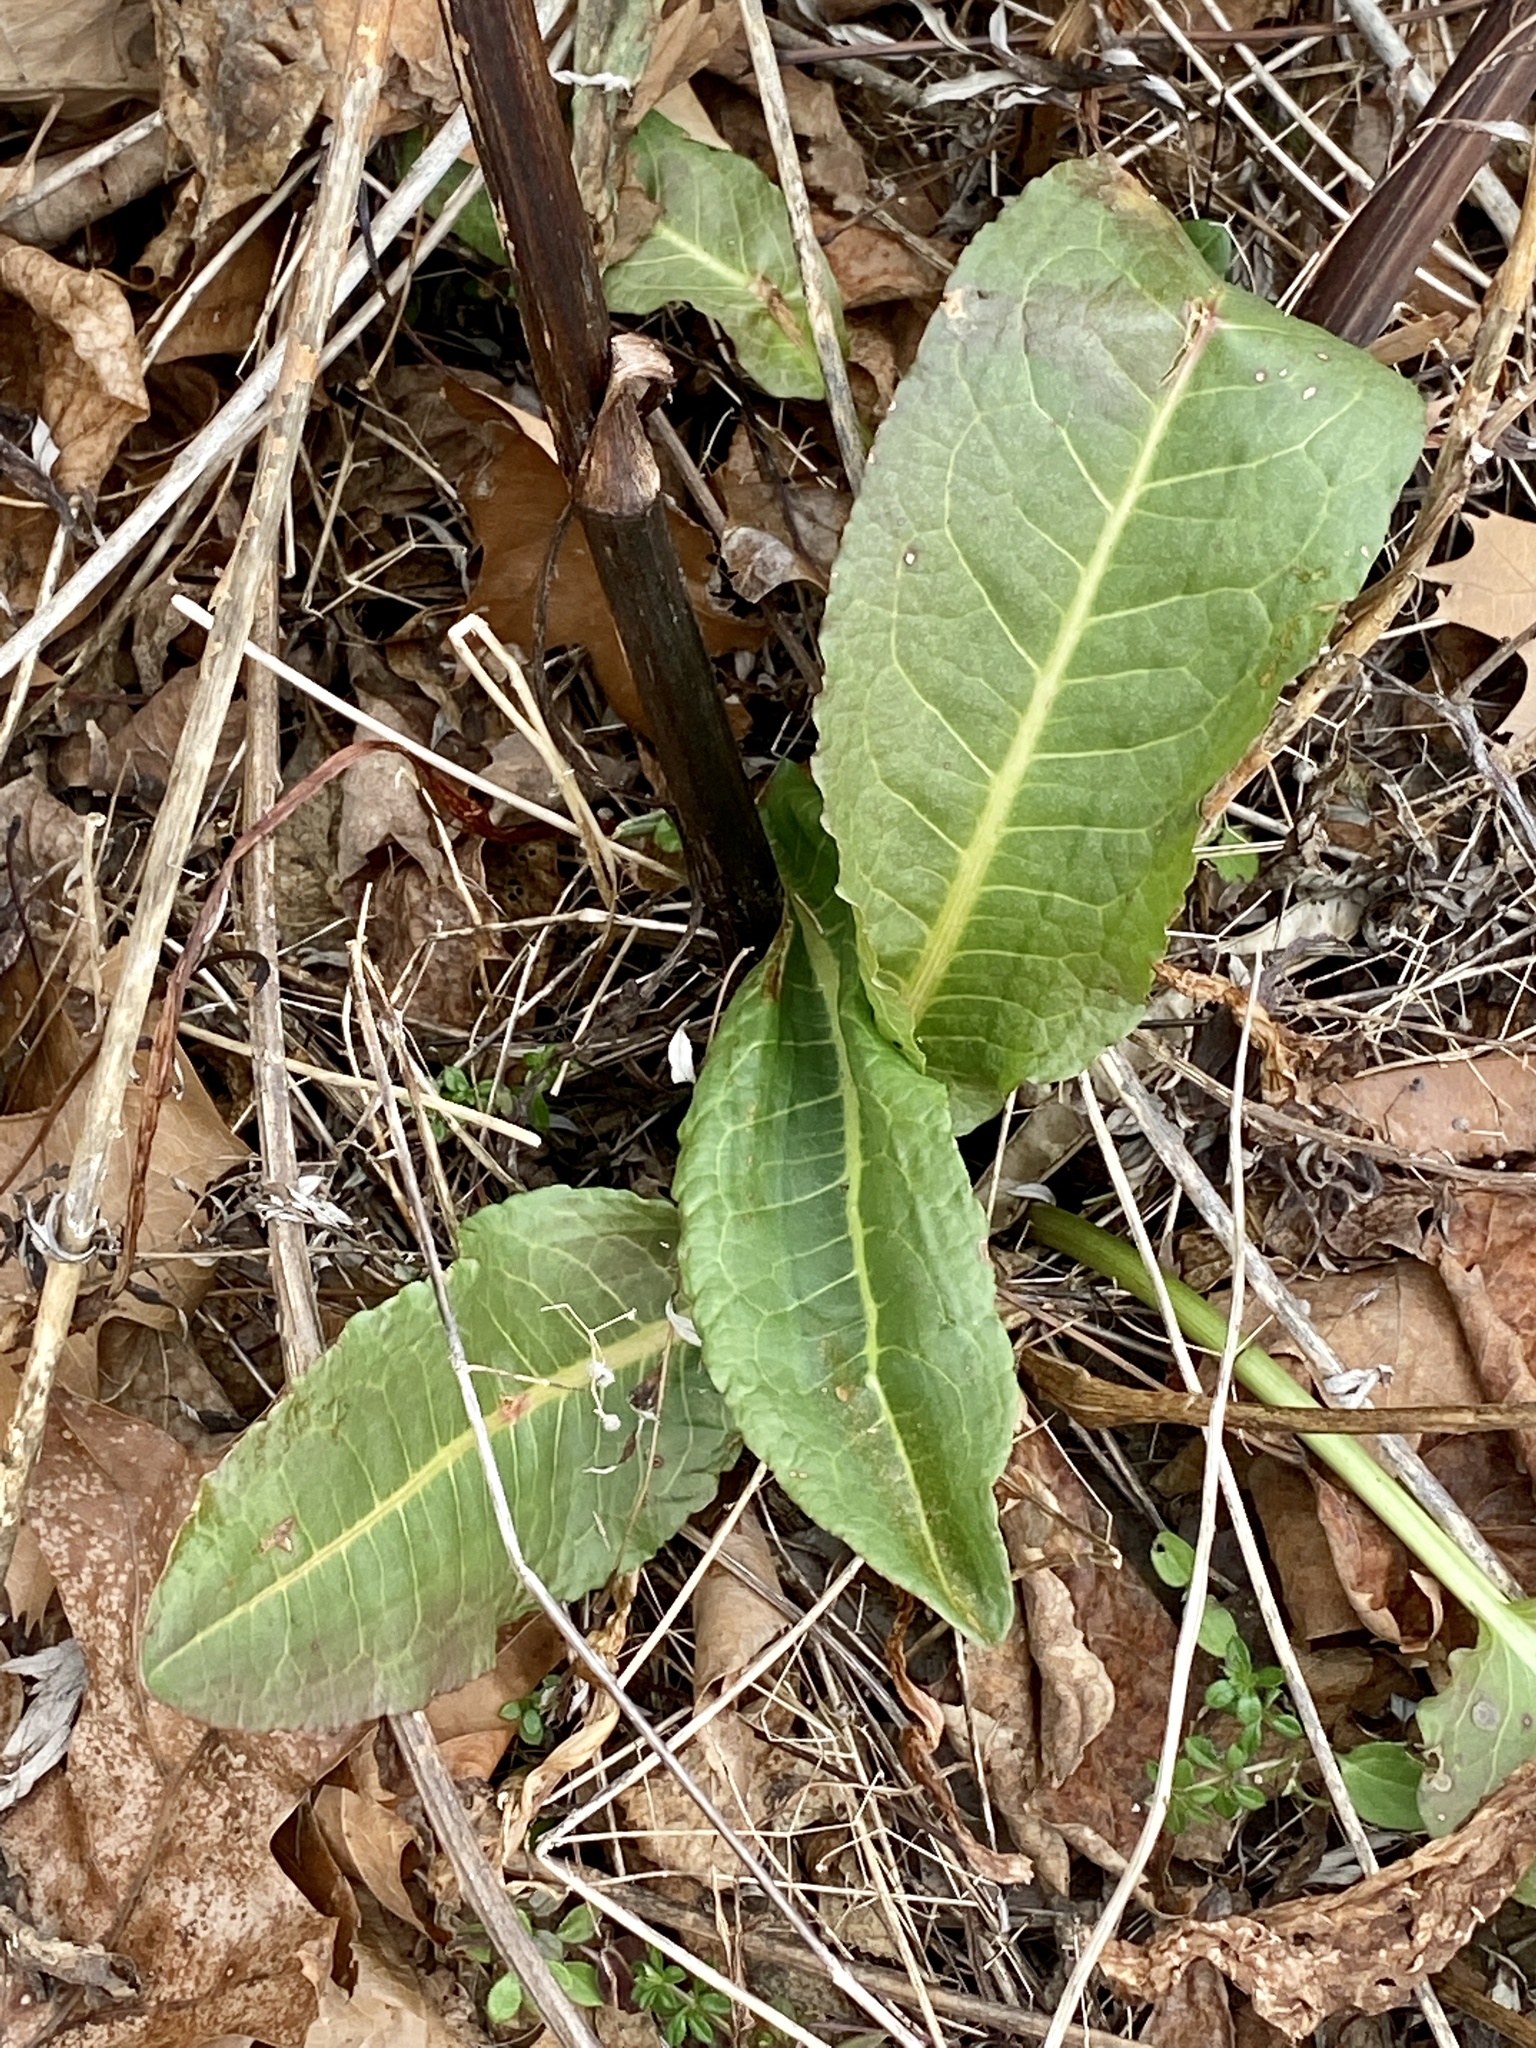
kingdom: Plantae
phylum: Tracheophyta
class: Magnoliopsida
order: Caryophyllales
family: Polygonaceae
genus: Rumex
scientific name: Rumex obtusifolius
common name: Bitter dock
